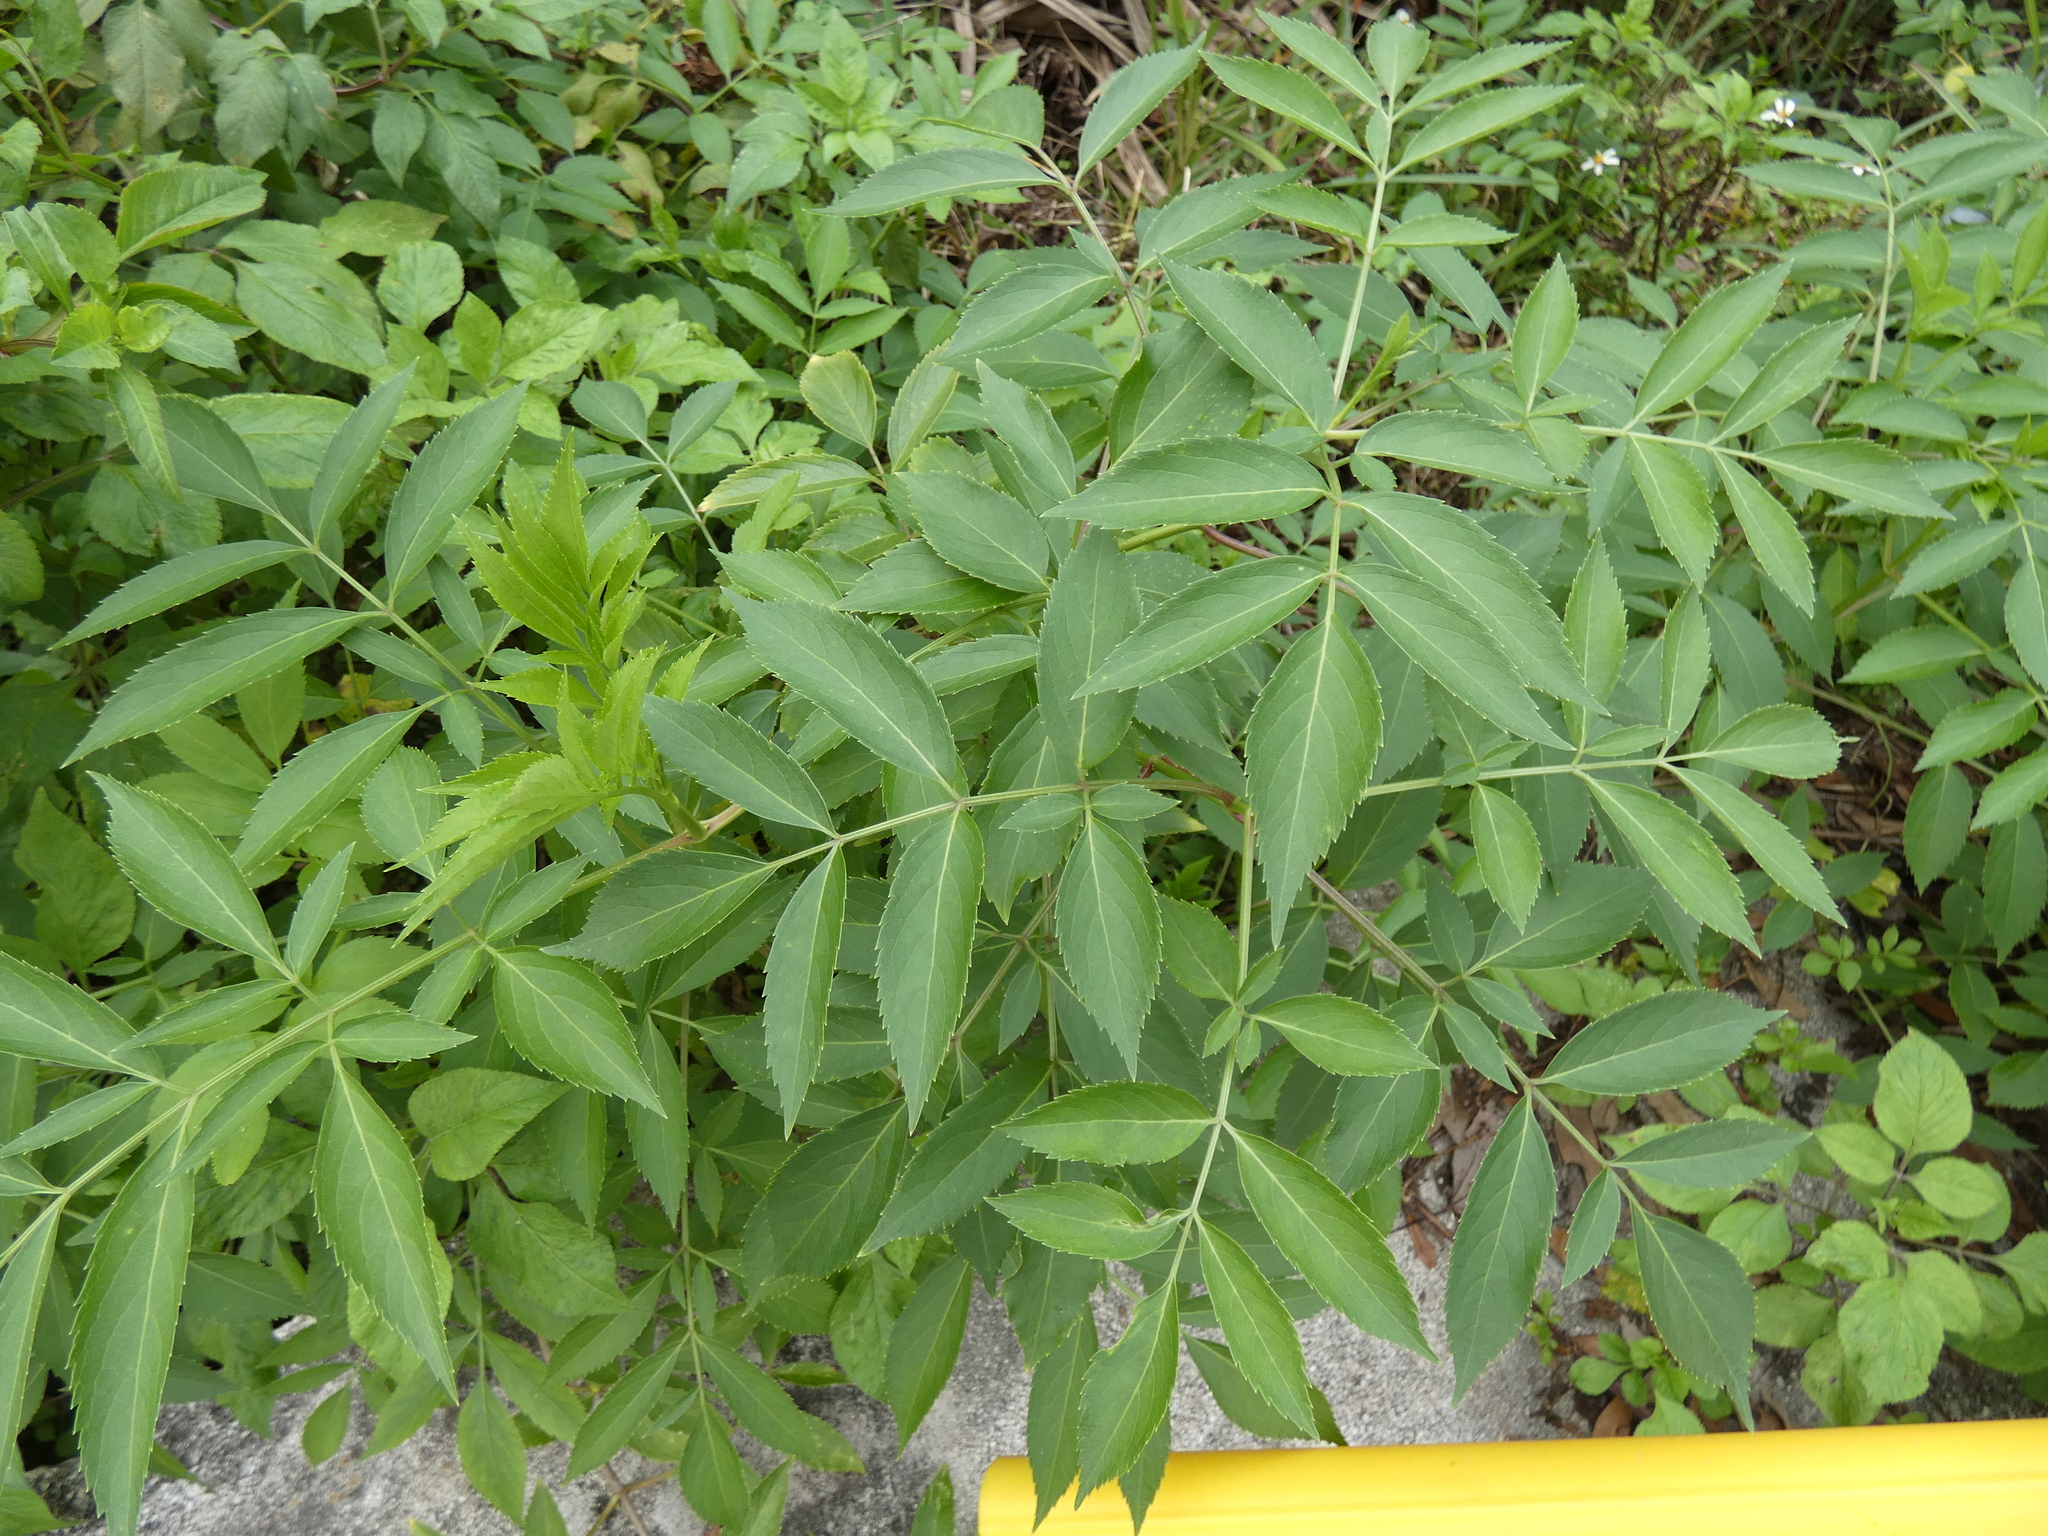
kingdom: Plantae
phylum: Tracheophyta
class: Magnoliopsida
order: Dipsacales
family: Viburnaceae
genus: Sambucus
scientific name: Sambucus canadensis
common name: American elder
